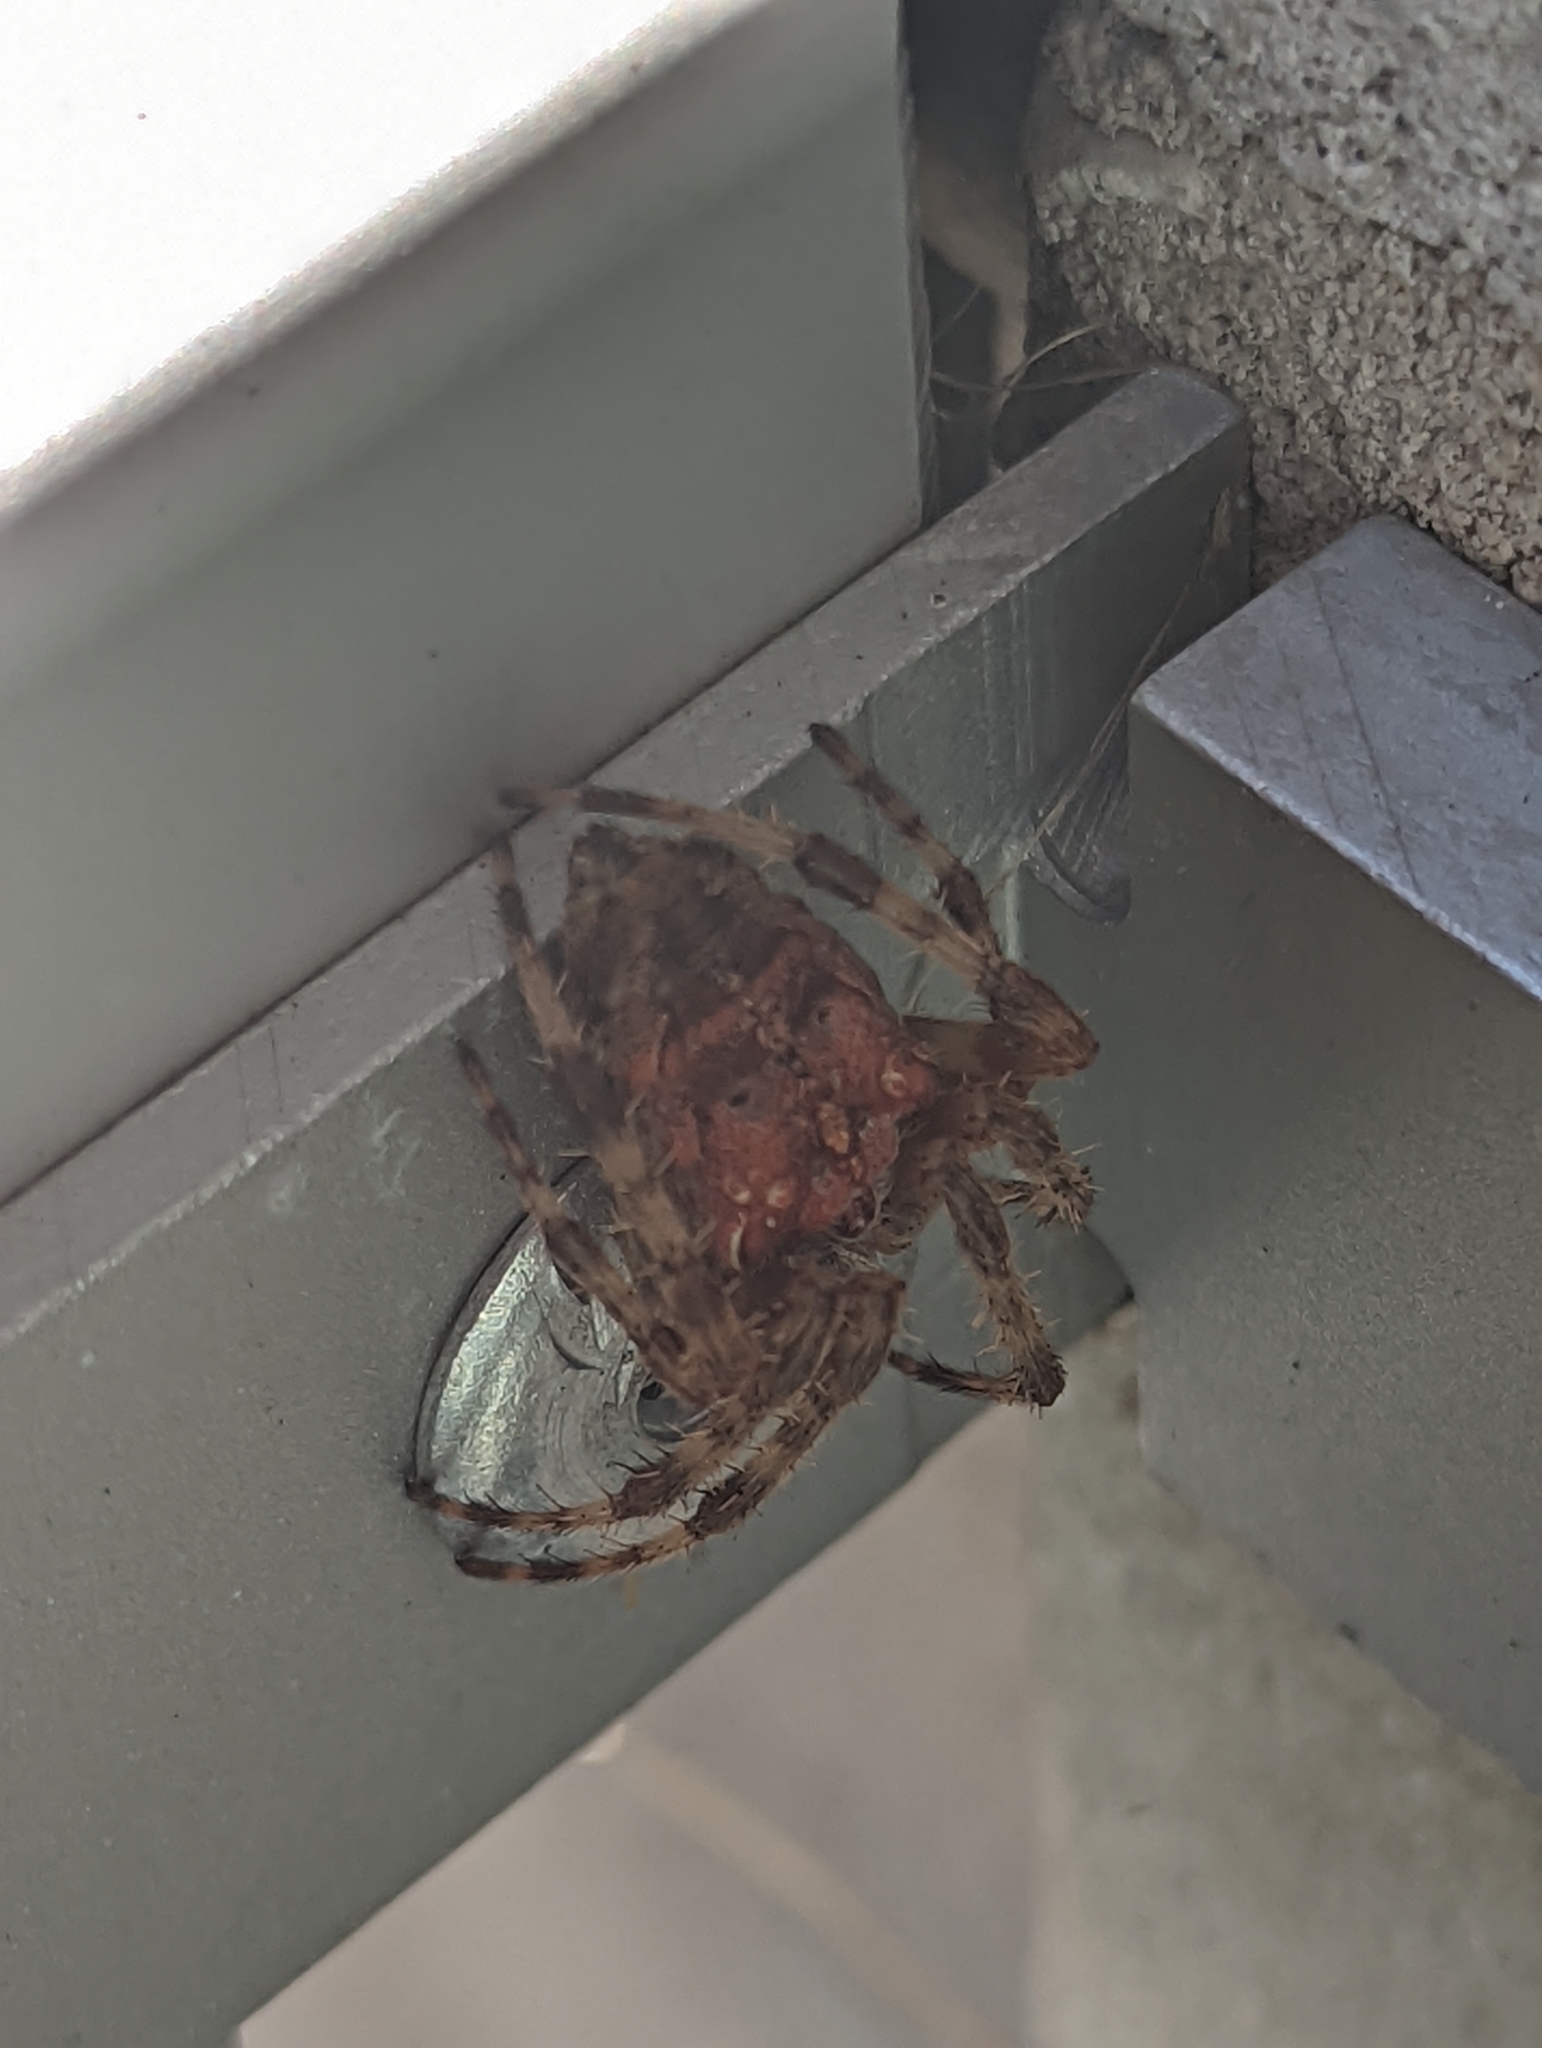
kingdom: Animalia
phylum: Arthropoda
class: Arachnida
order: Araneae
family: Araneidae
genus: Araneus
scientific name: Araneus diadematus
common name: Cross orbweaver
